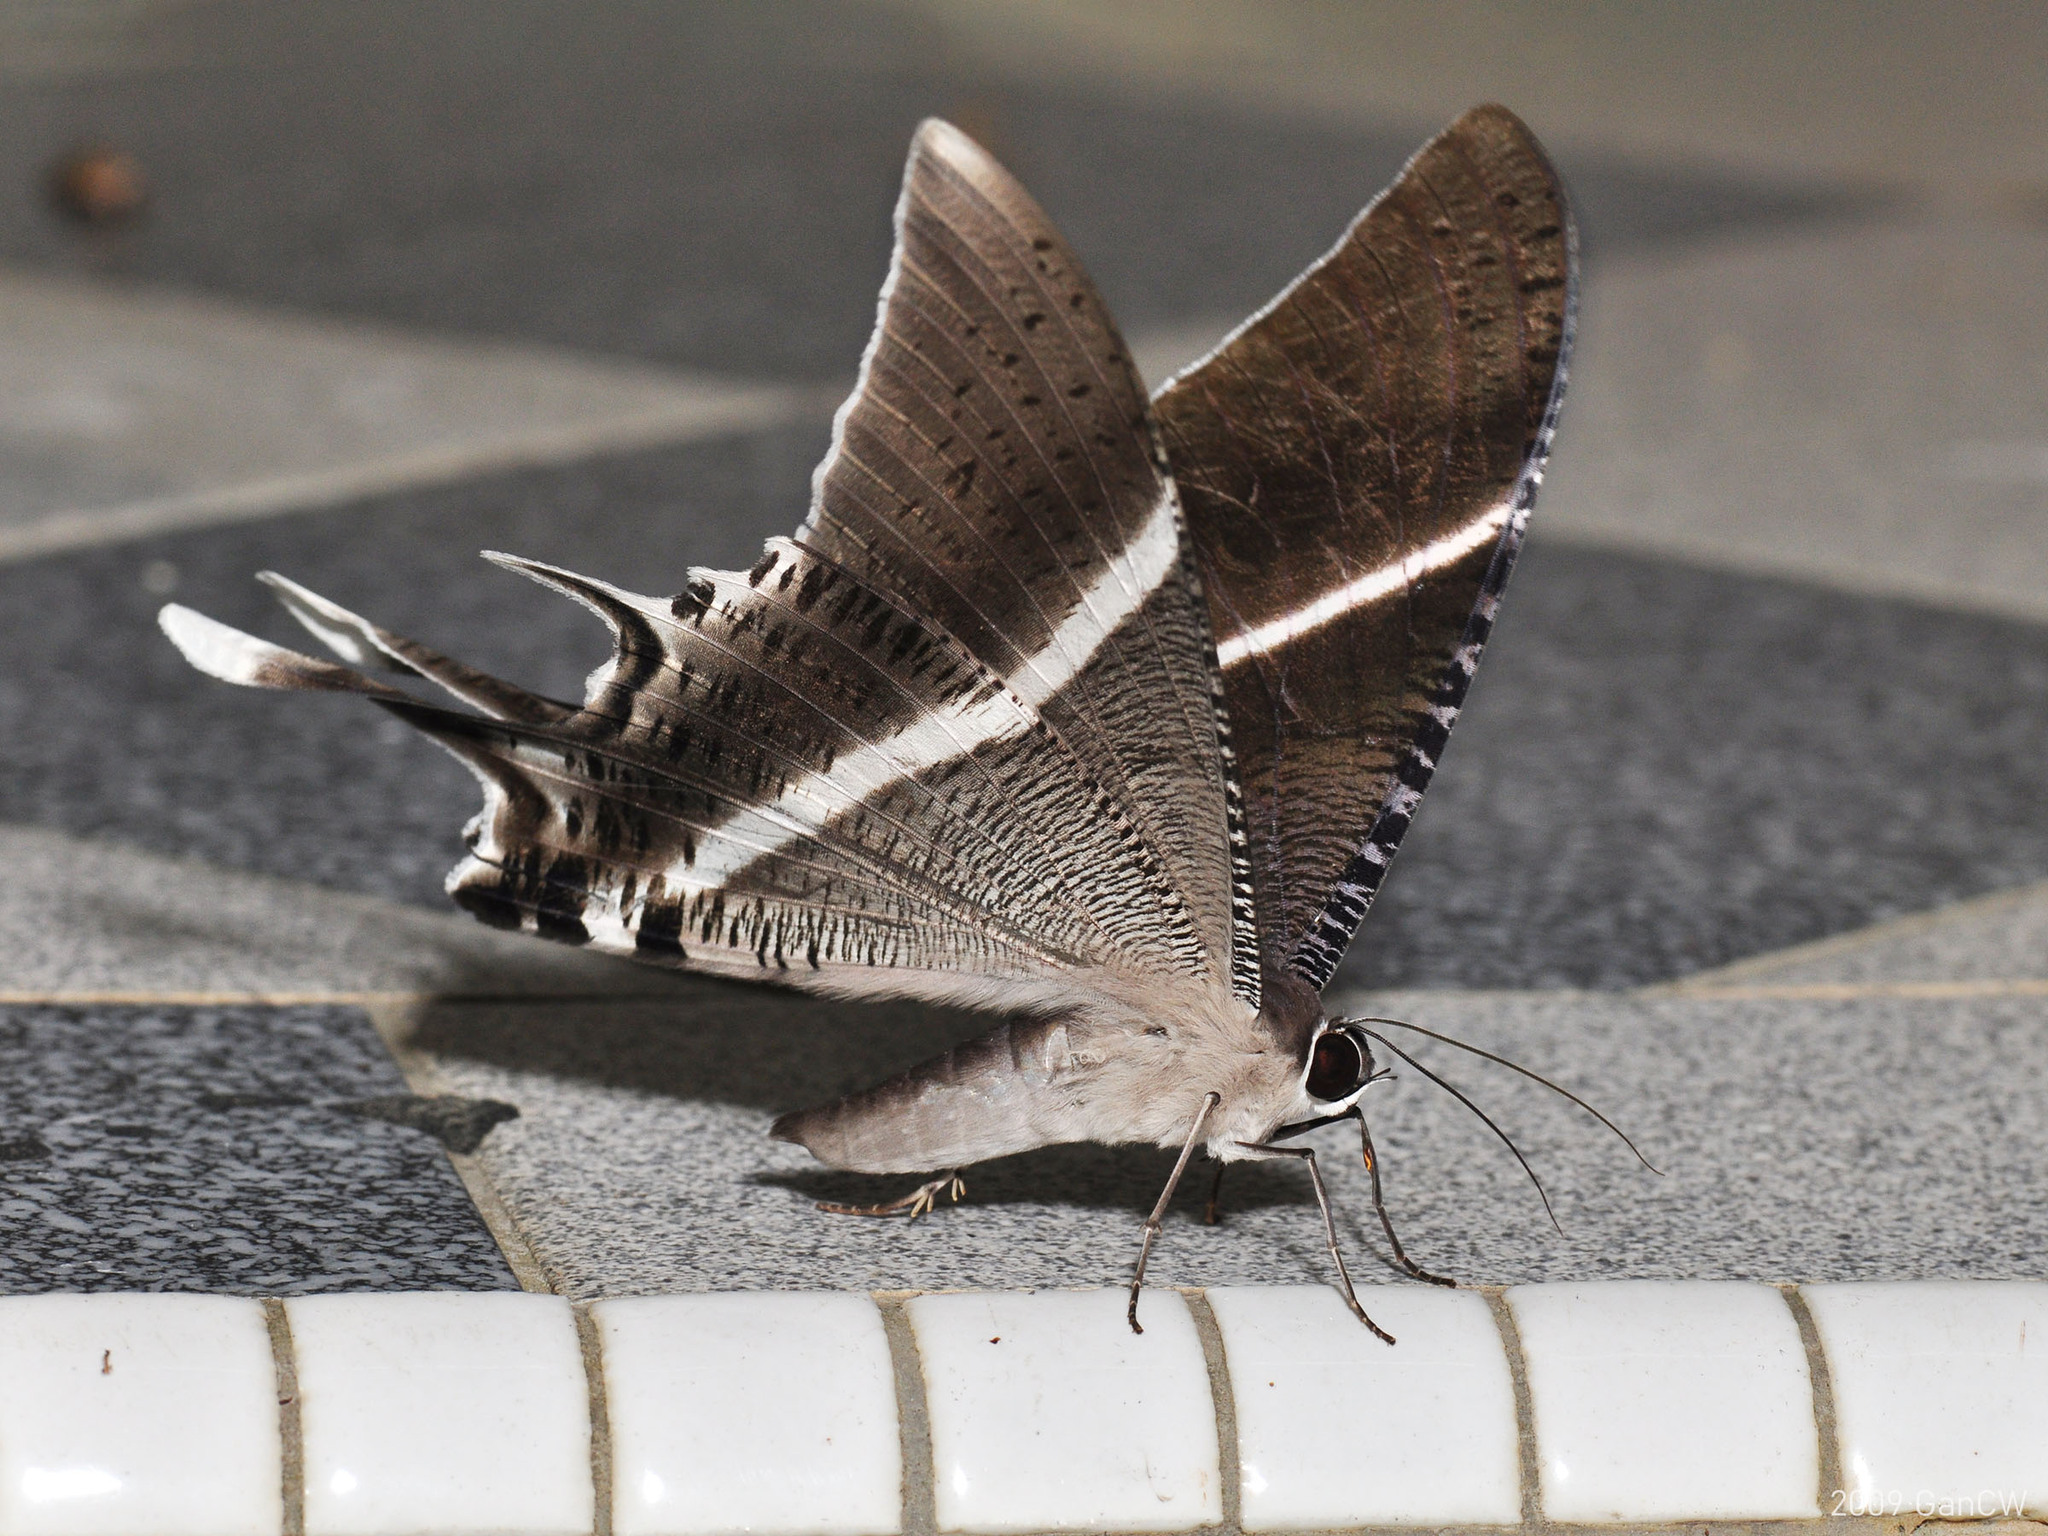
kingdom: Animalia
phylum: Arthropoda
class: Insecta
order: Lepidoptera
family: Uraniidae
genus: Lyssa
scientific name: Lyssa zampa
